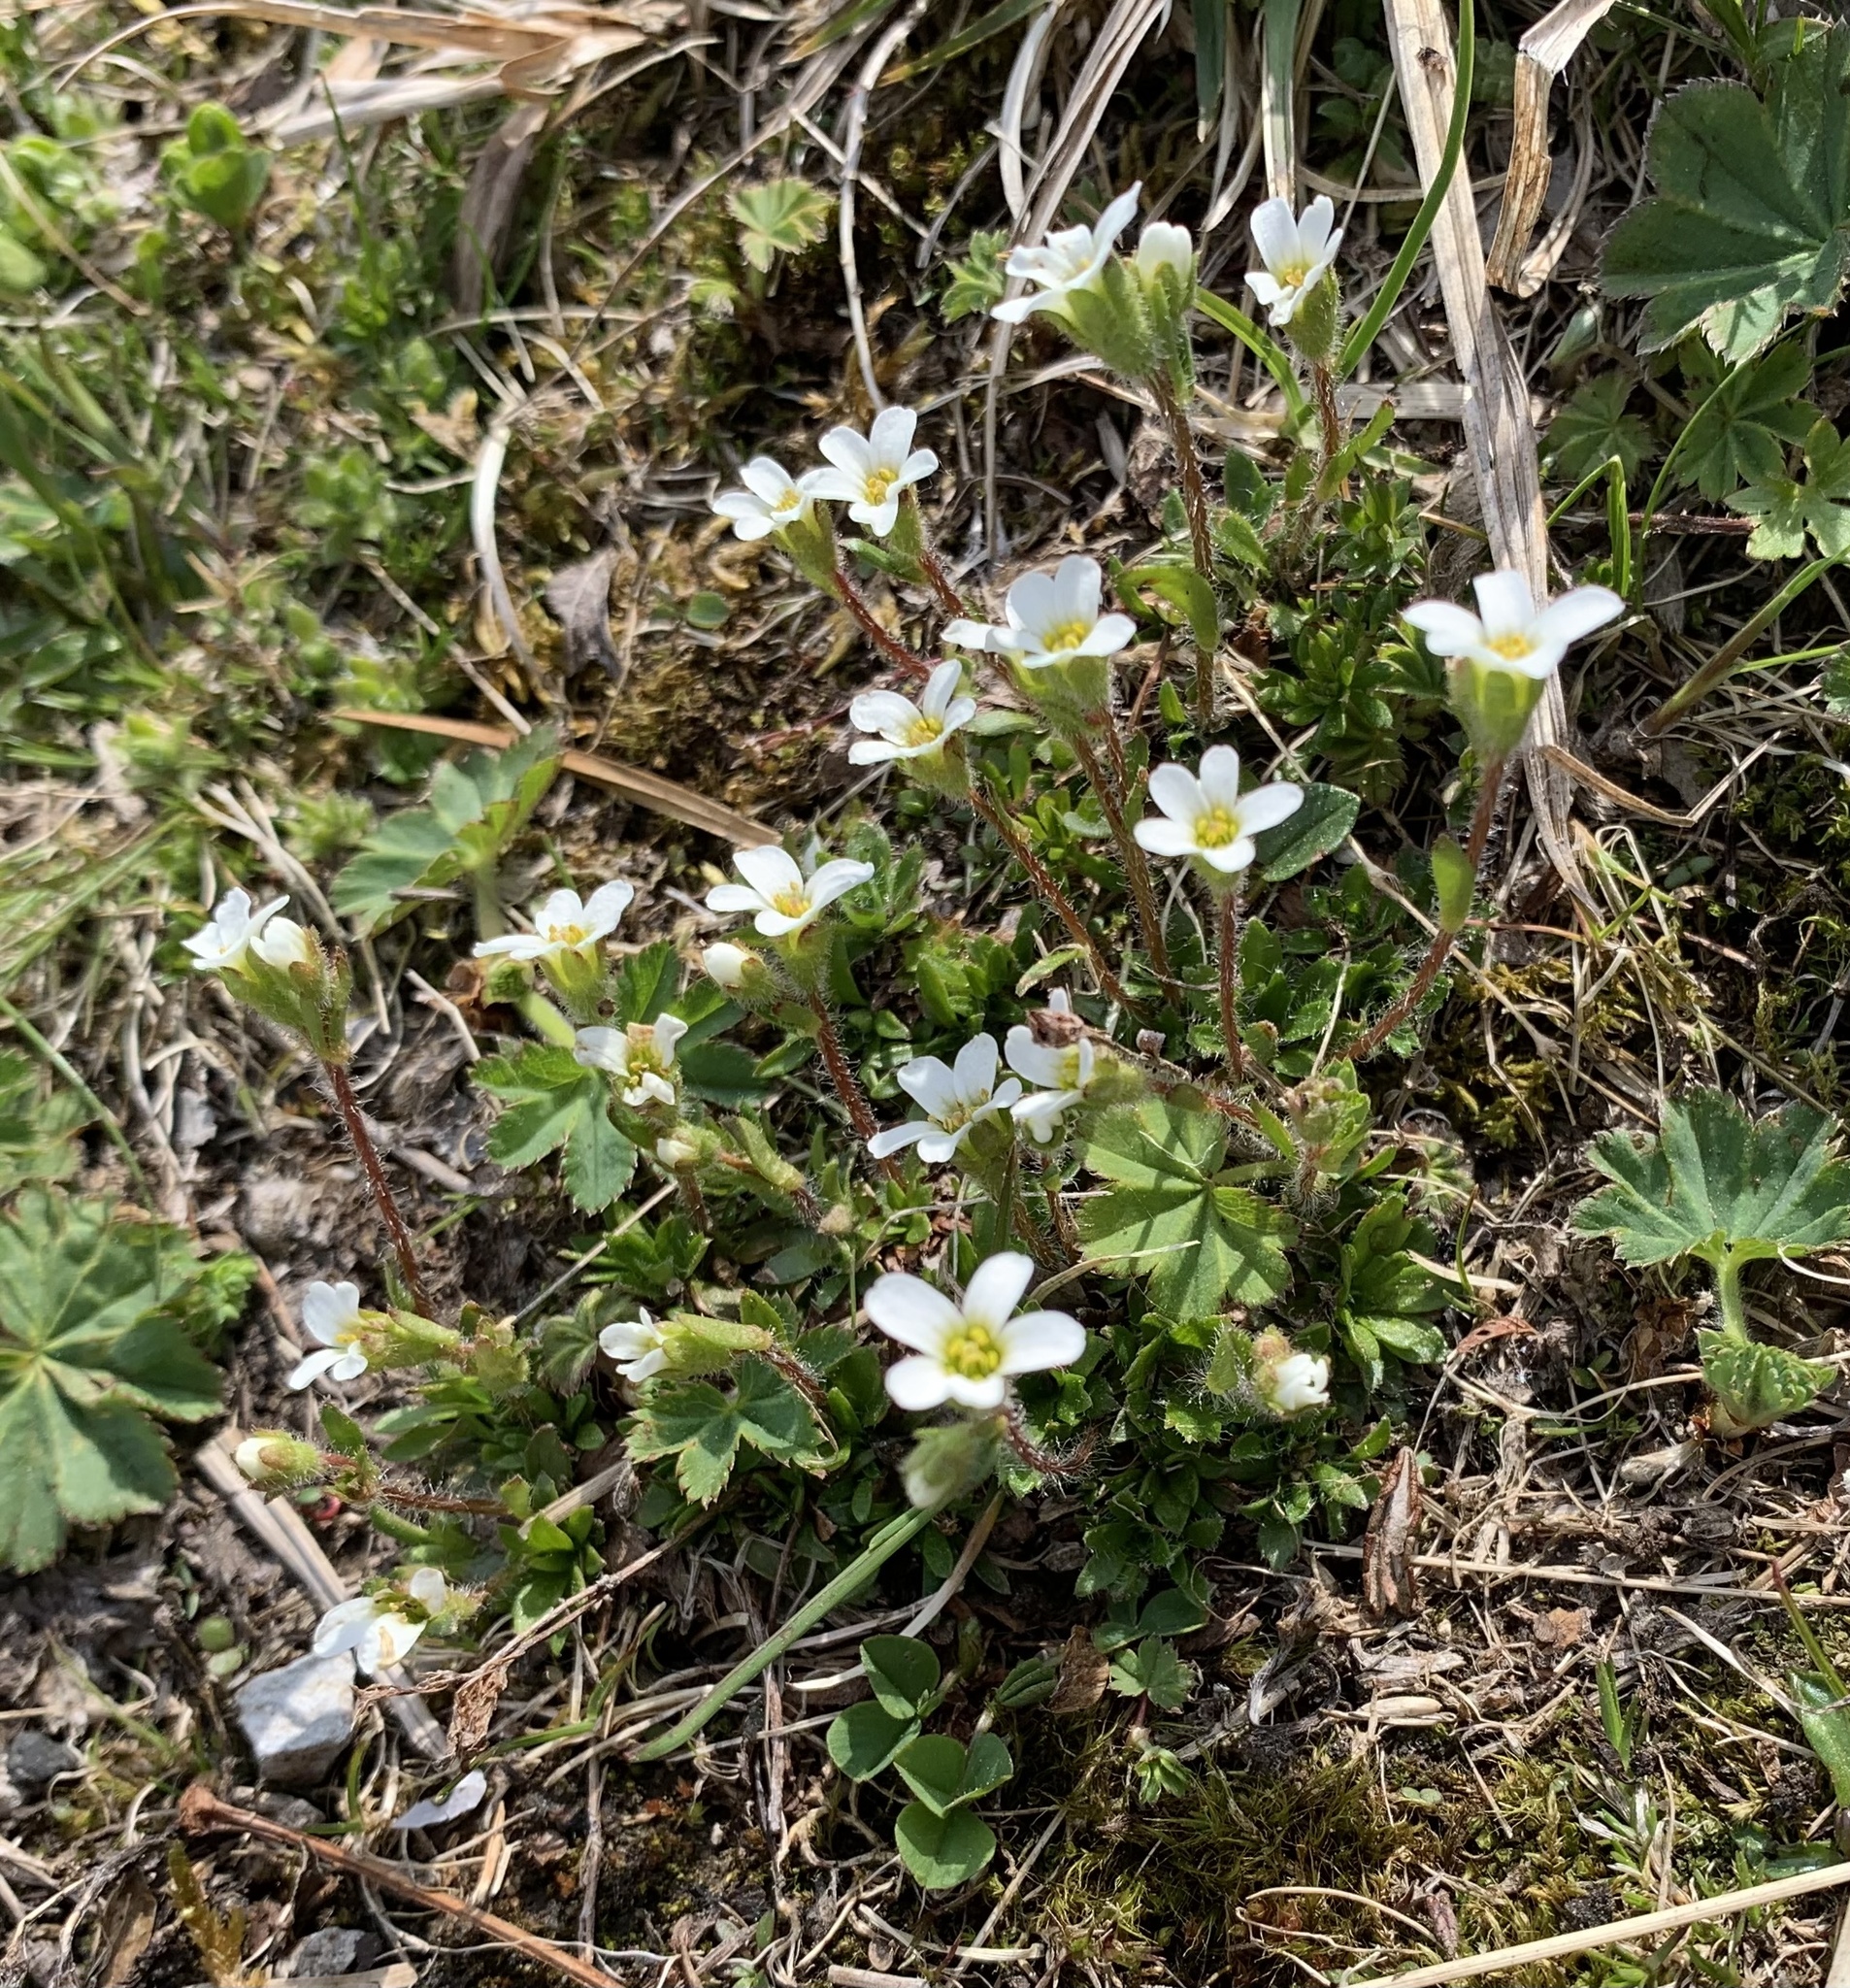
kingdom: Plantae
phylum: Tracheophyta
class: Magnoliopsida
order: Saxifragales
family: Saxifragaceae
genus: Saxifraga
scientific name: Saxifraga androsacea
